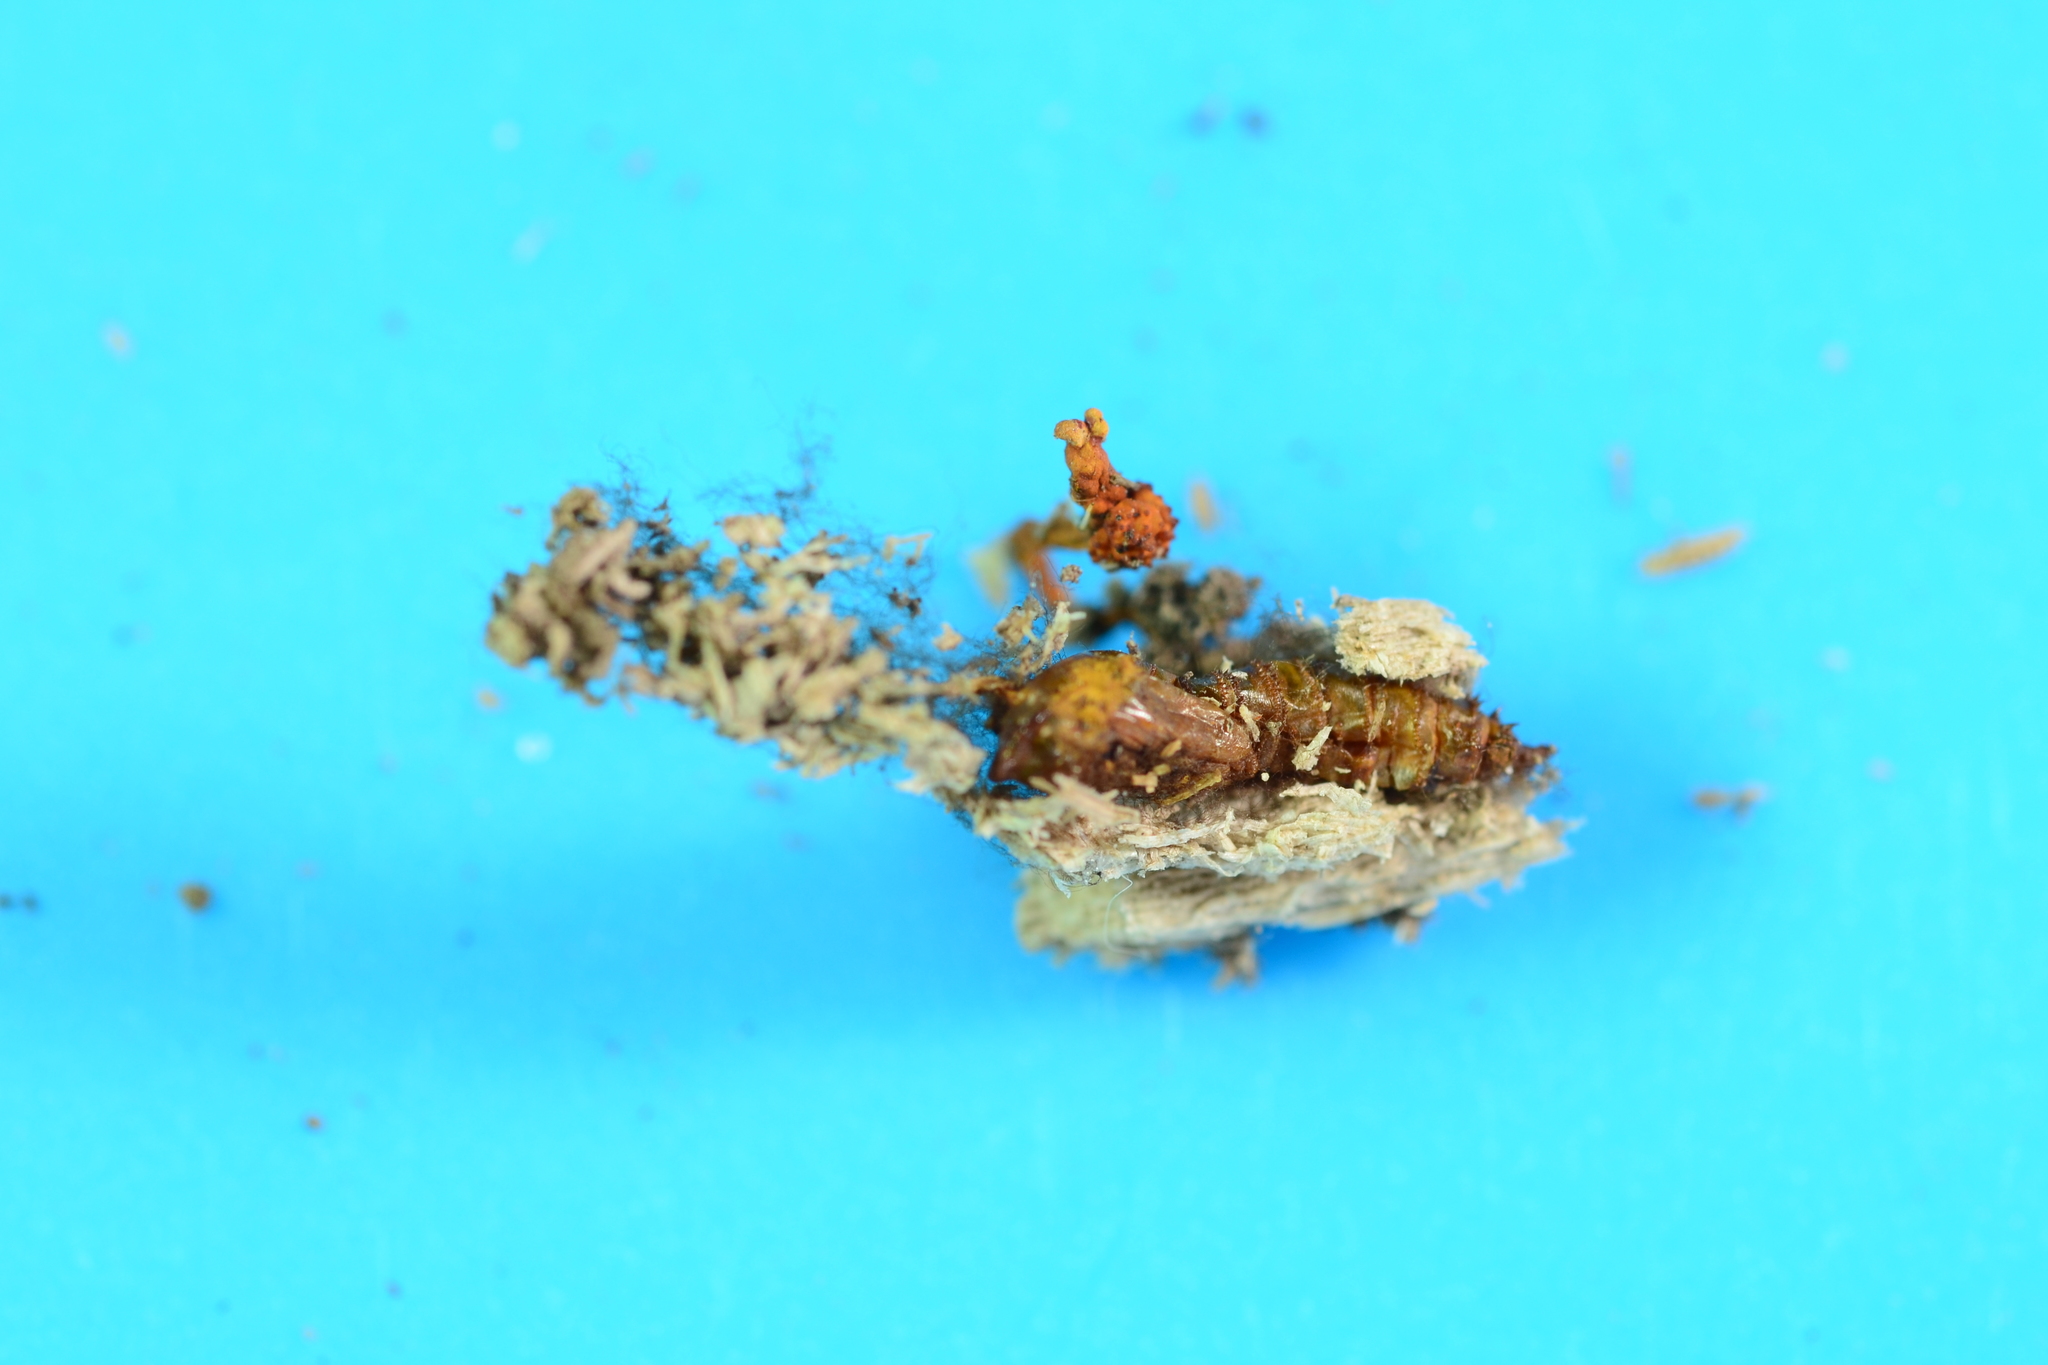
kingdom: Fungi
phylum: Ascomycota
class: Sordariomycetes
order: Hypocreales
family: Ophiocordycipitaceae
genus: Ophiocordyceps
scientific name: Ophiocordyceps variabilis
